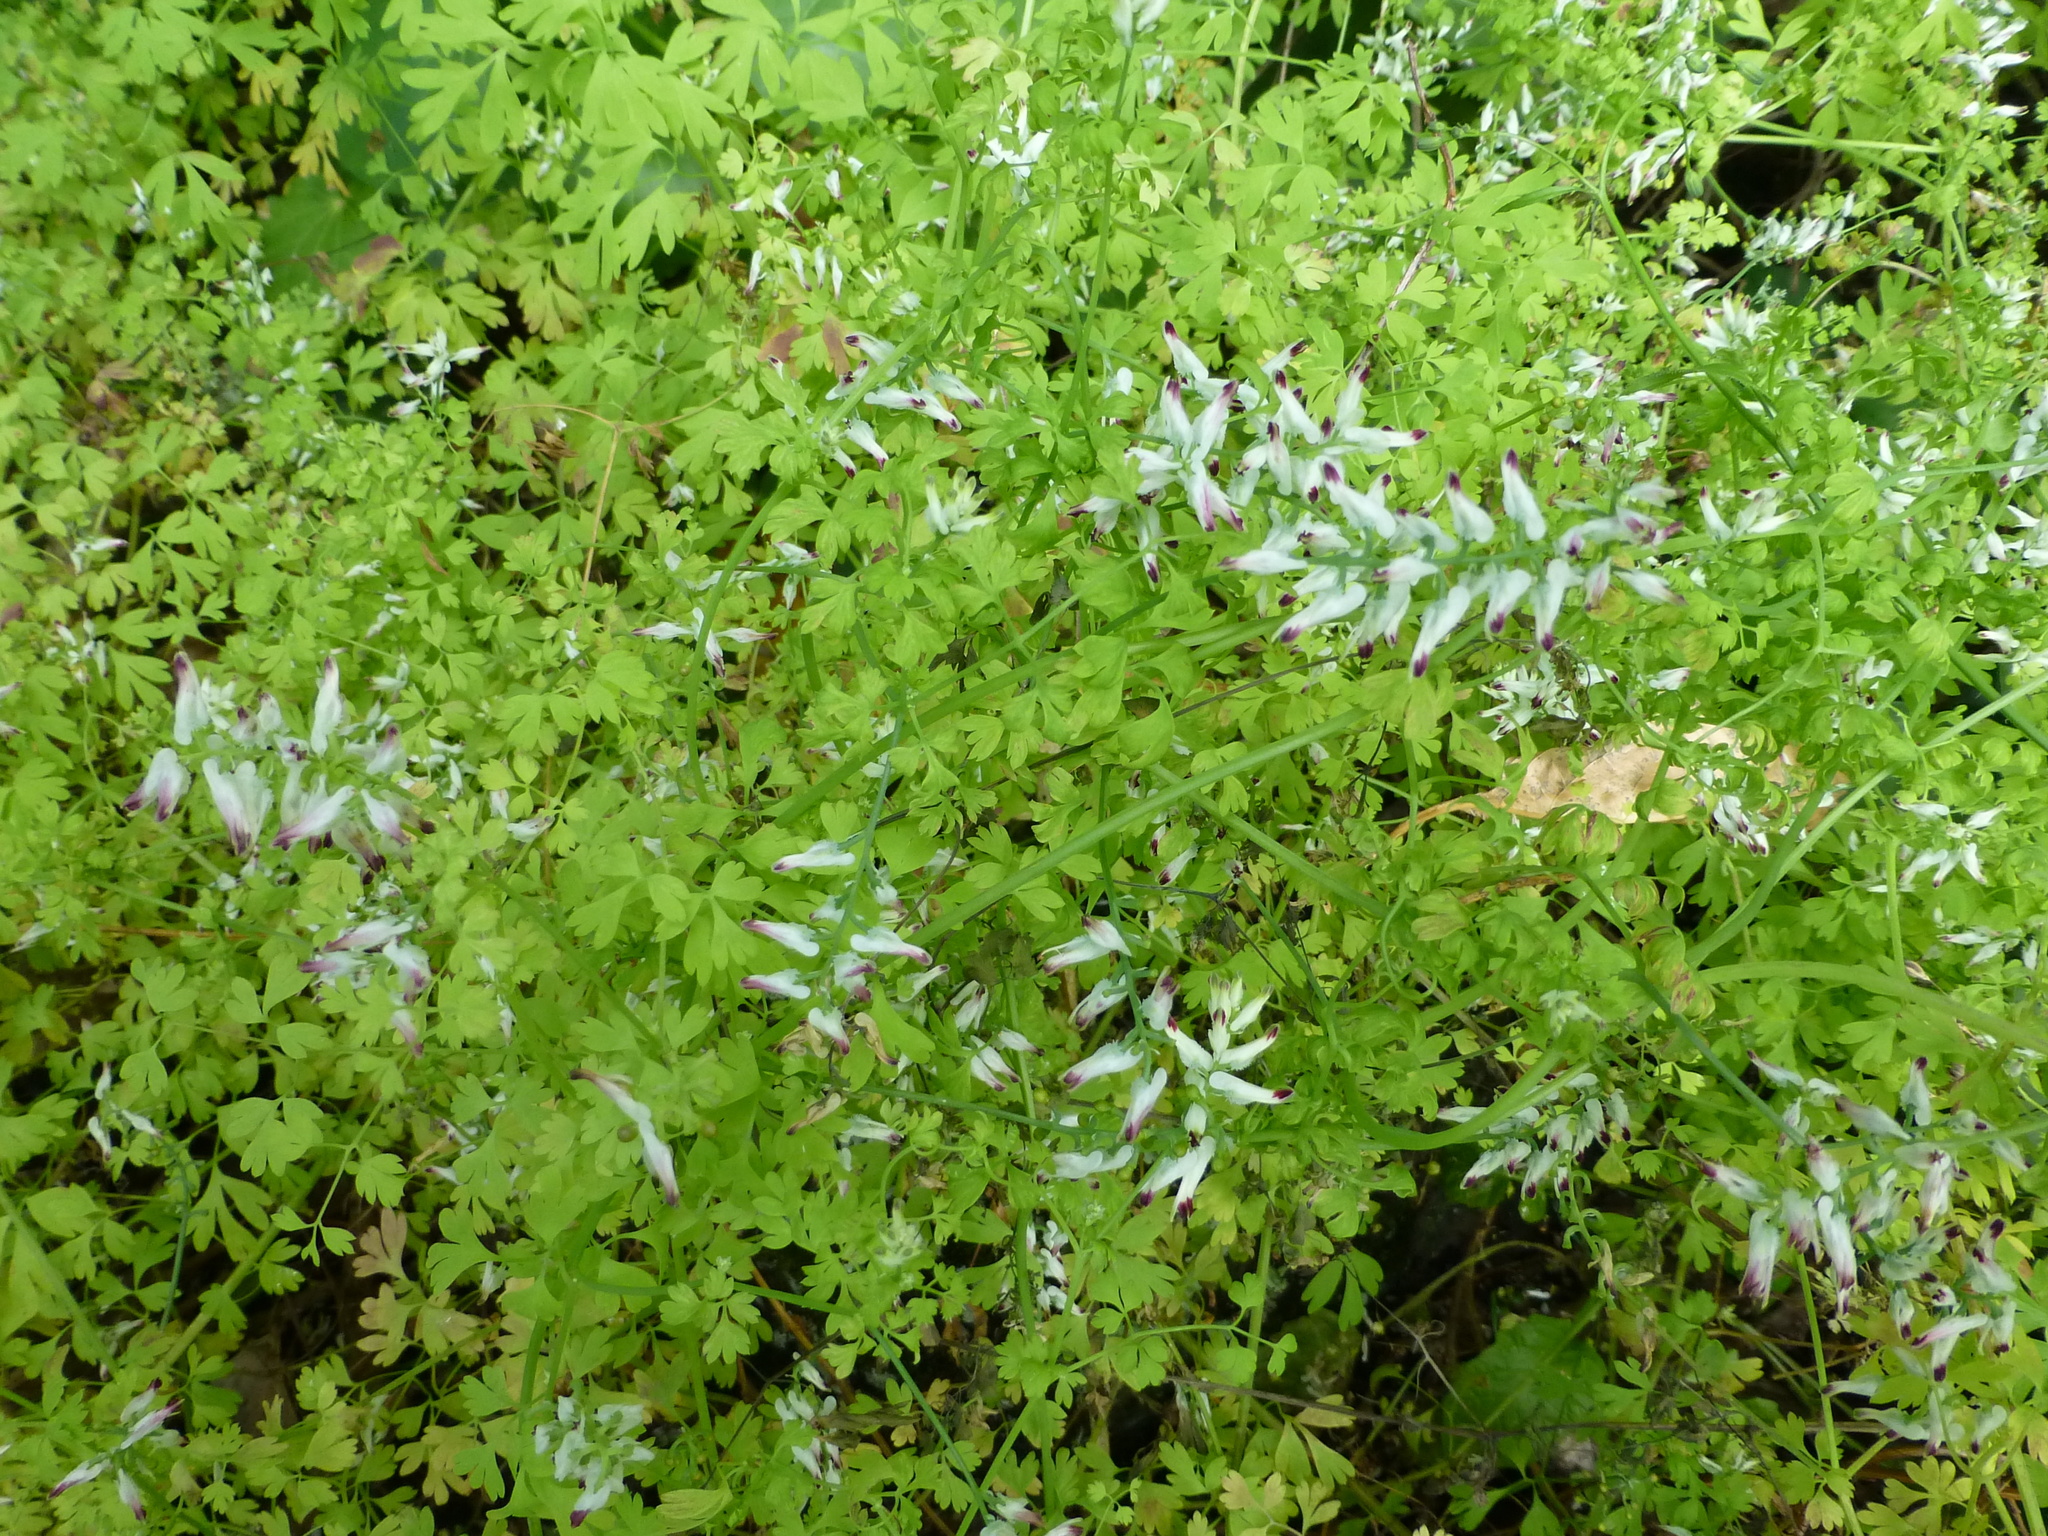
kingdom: Plantae
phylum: Tracheophyta
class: Magnoliopsida
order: Ranunculales
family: Papaveraceae
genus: Fumaria
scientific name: Fumaria capreolata
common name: White ramping-fumitory
